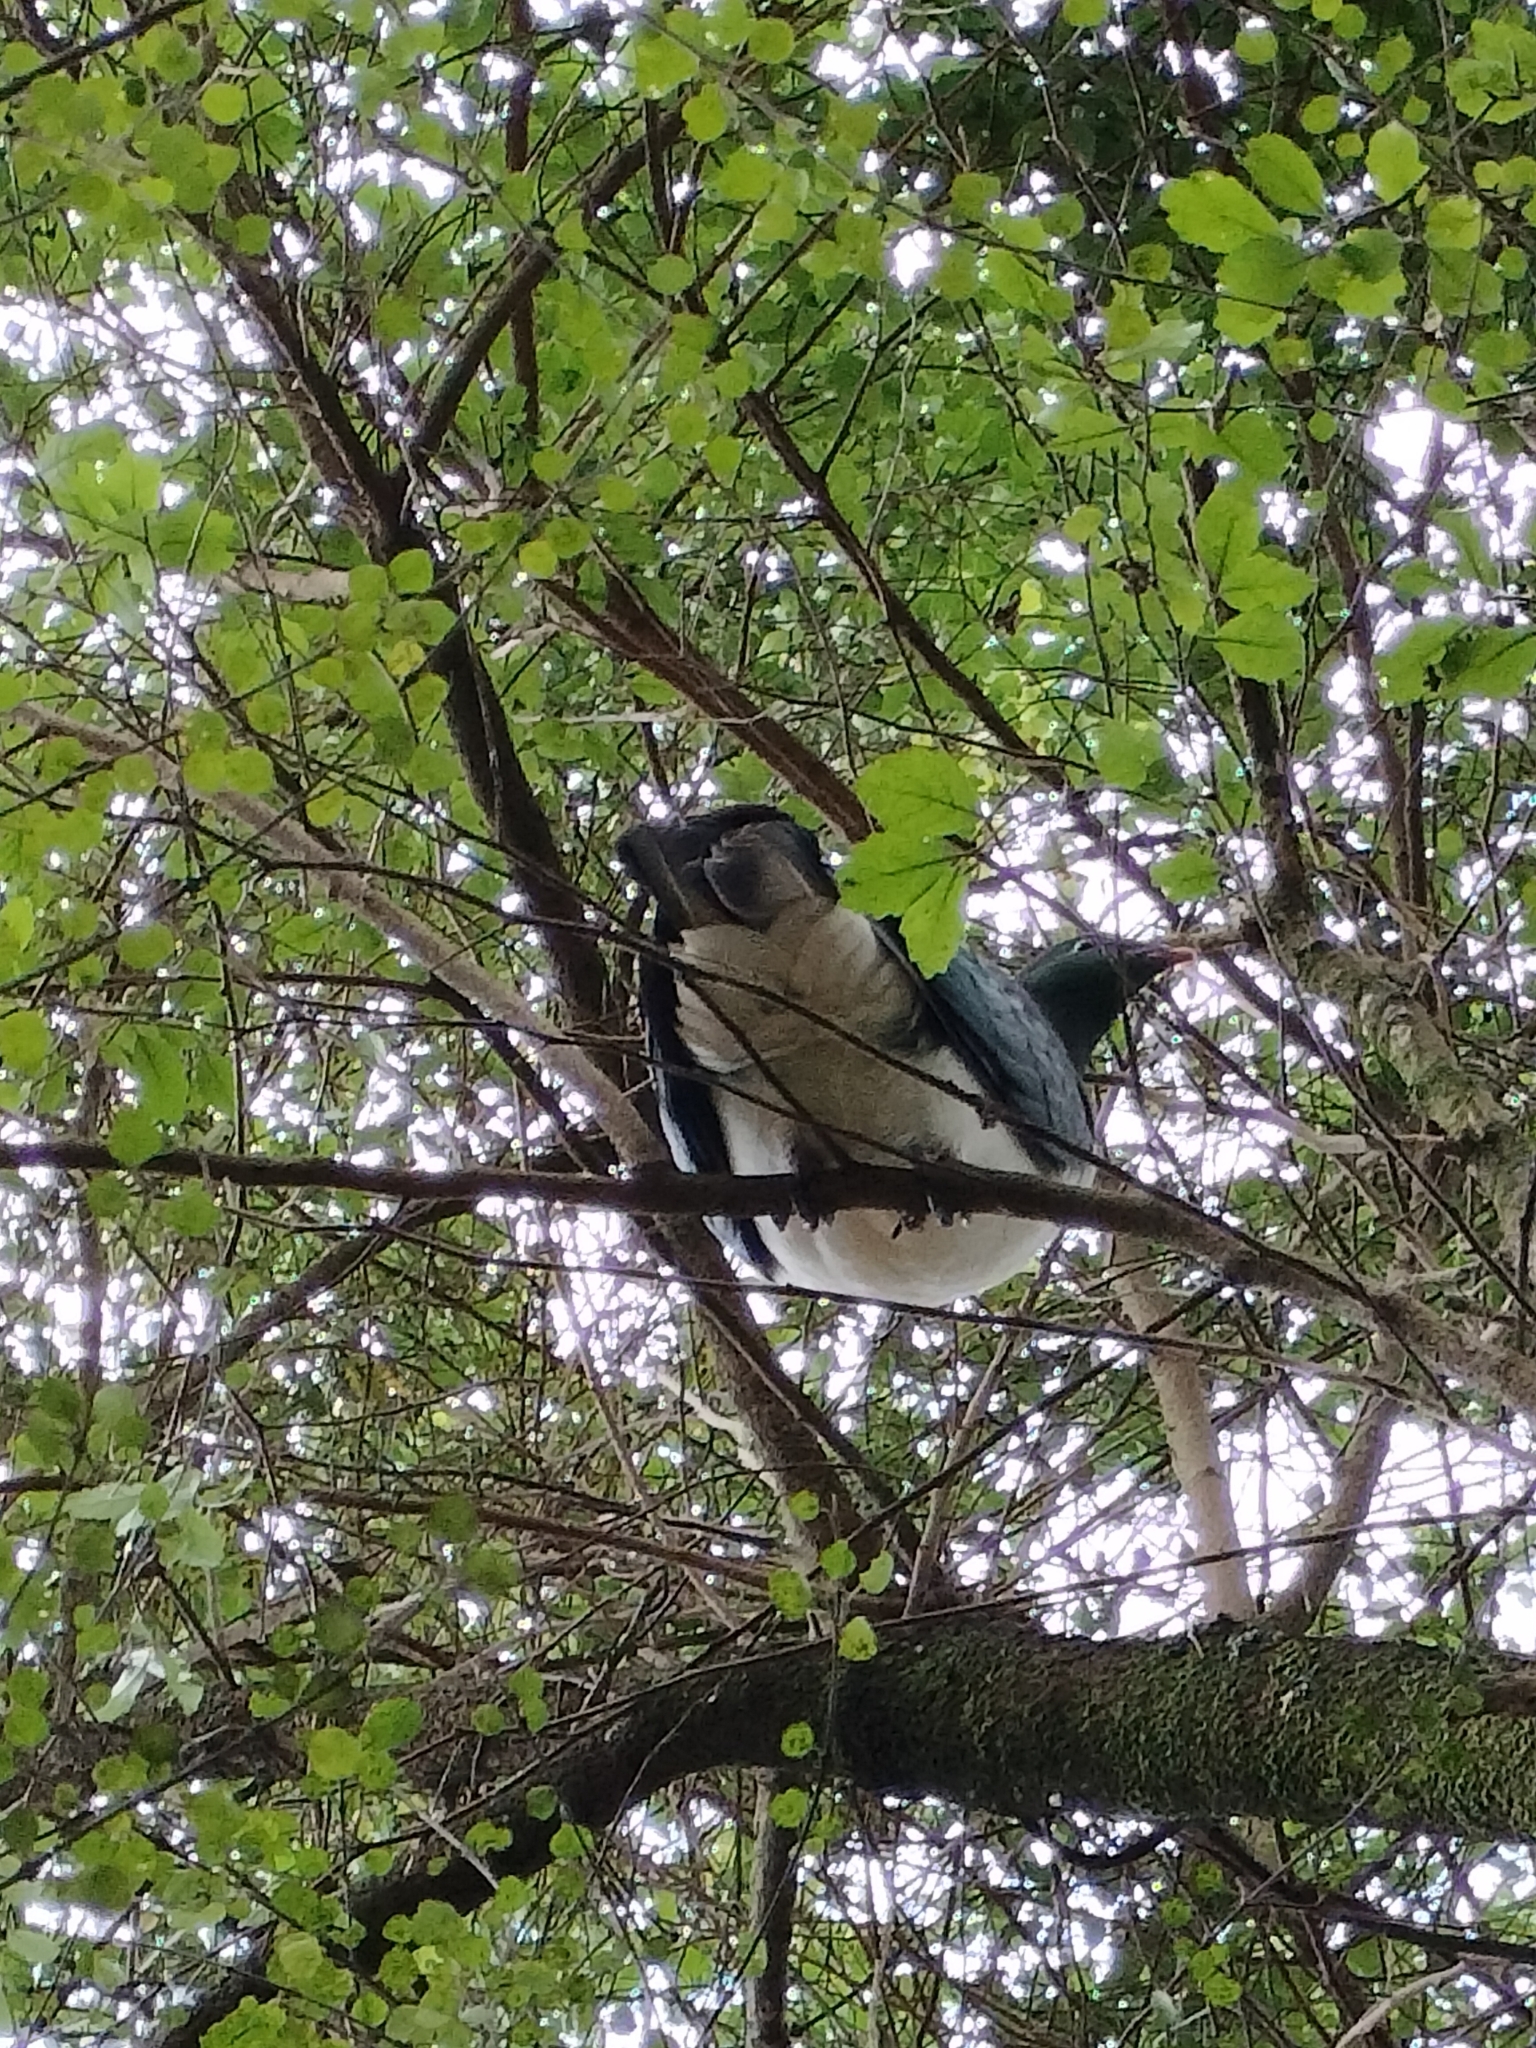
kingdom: Animalia
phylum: Chordata
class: Aves
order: Columbiformes
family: Columbidae
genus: Hemiphaga
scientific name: Hemiphaga novaeseelandiae
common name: New zealand pigeon
